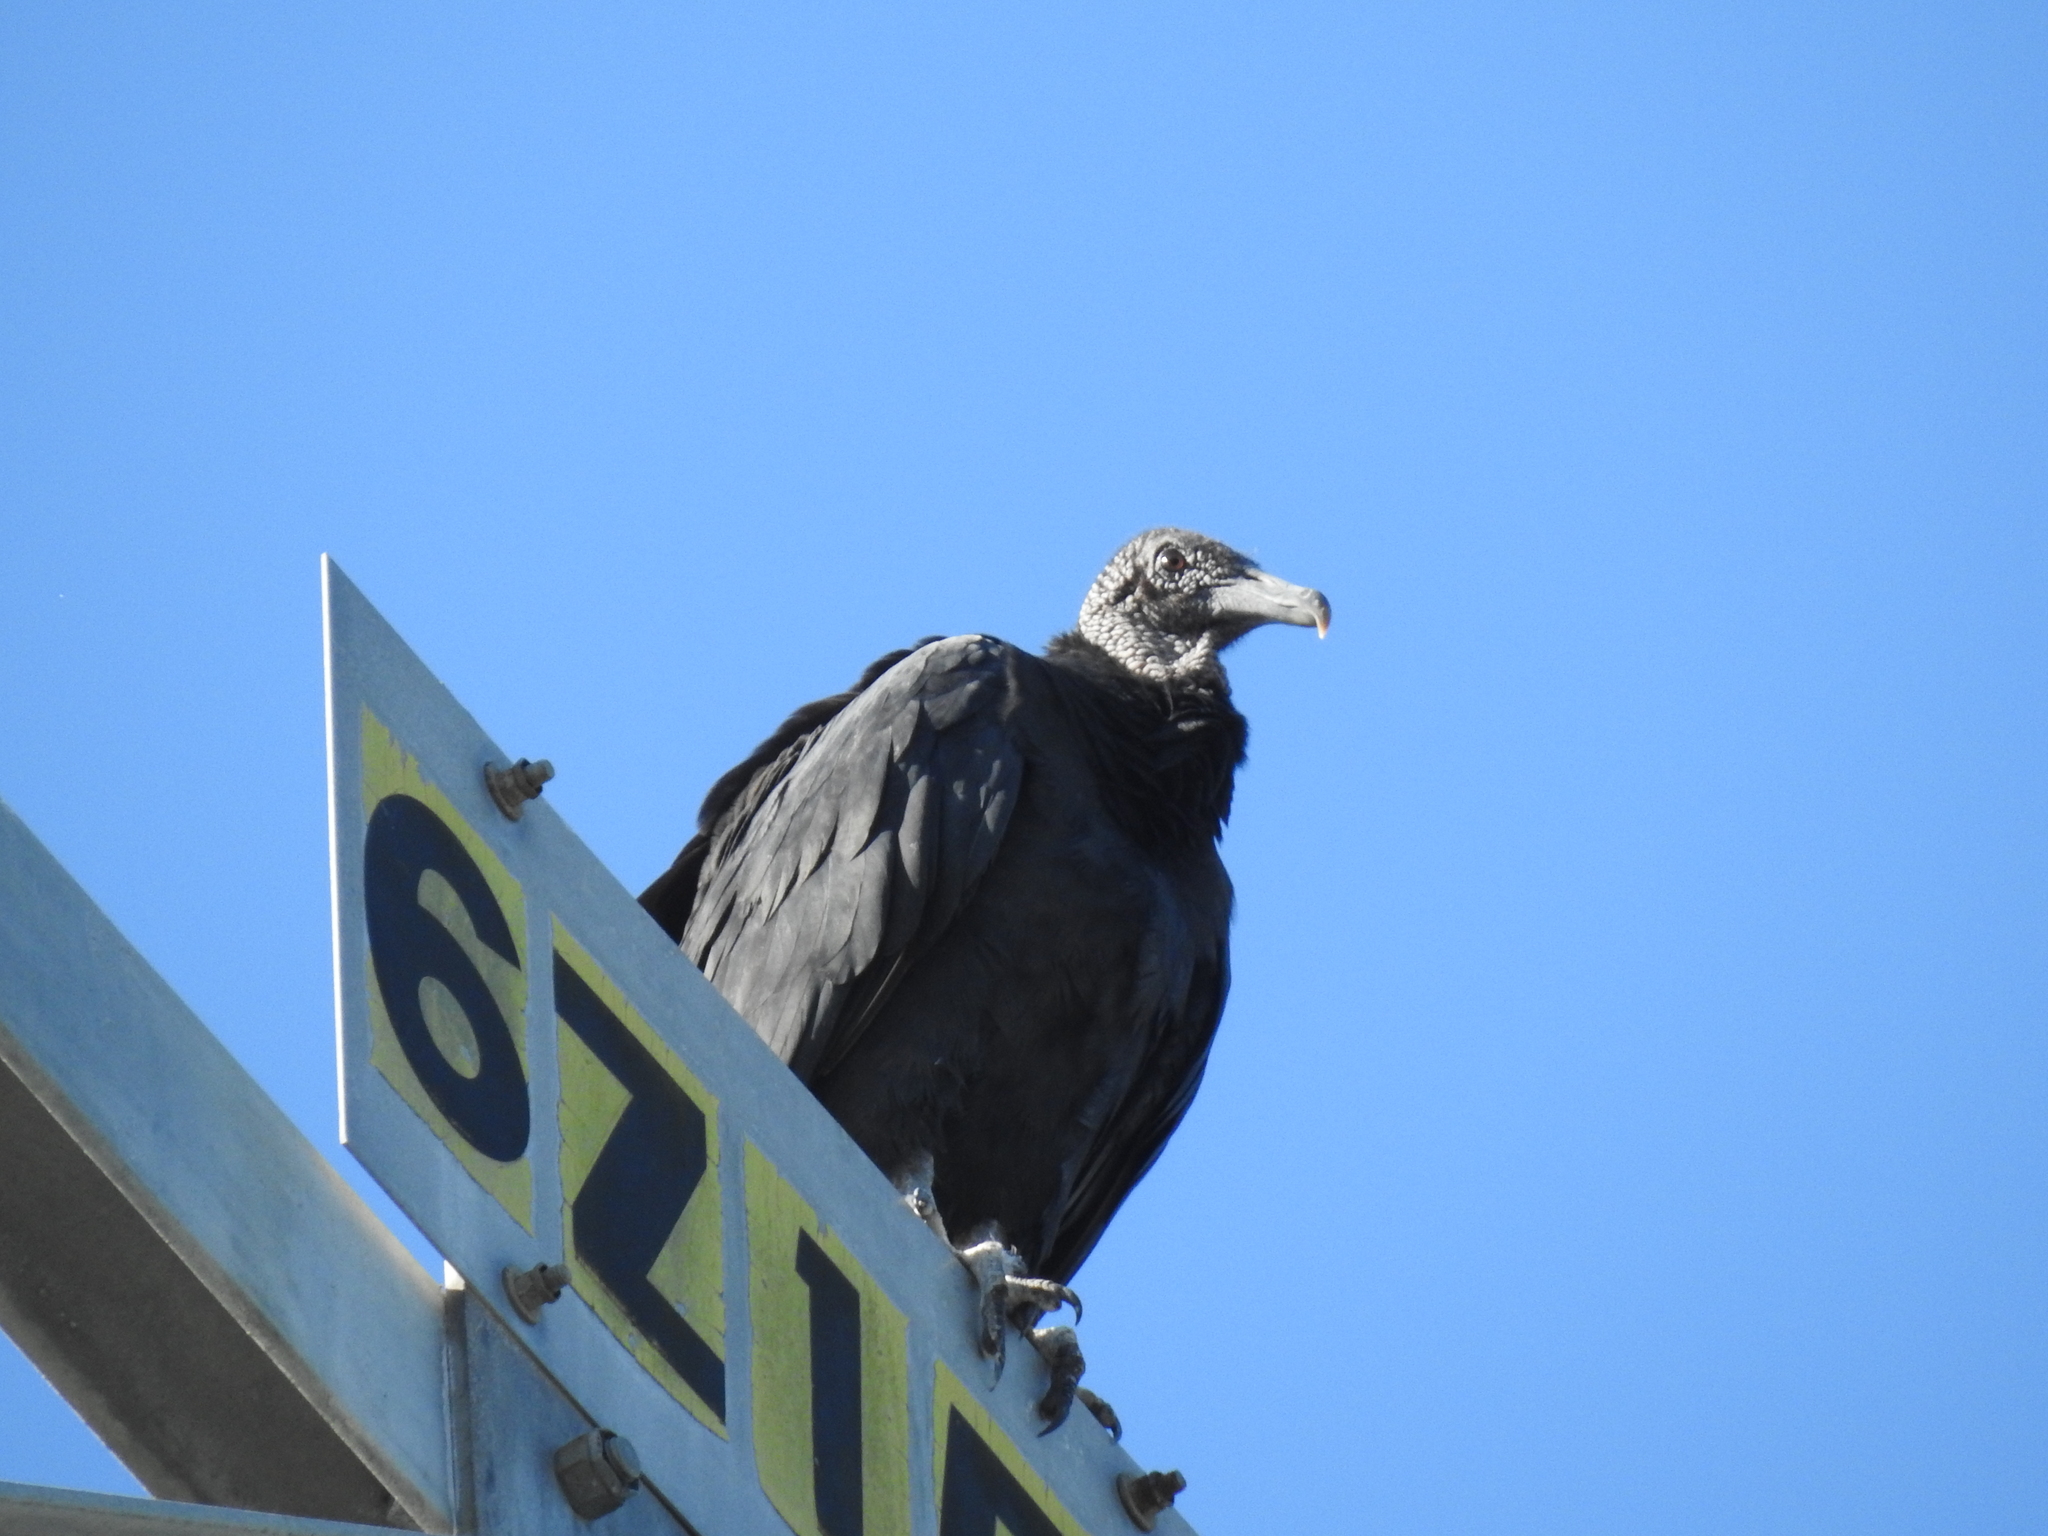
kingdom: Animalia
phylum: Chordata
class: Aves
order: Accipitriformes
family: Cathartidae
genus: Coragyps
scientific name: Coragyps atratus
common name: Black vulture
